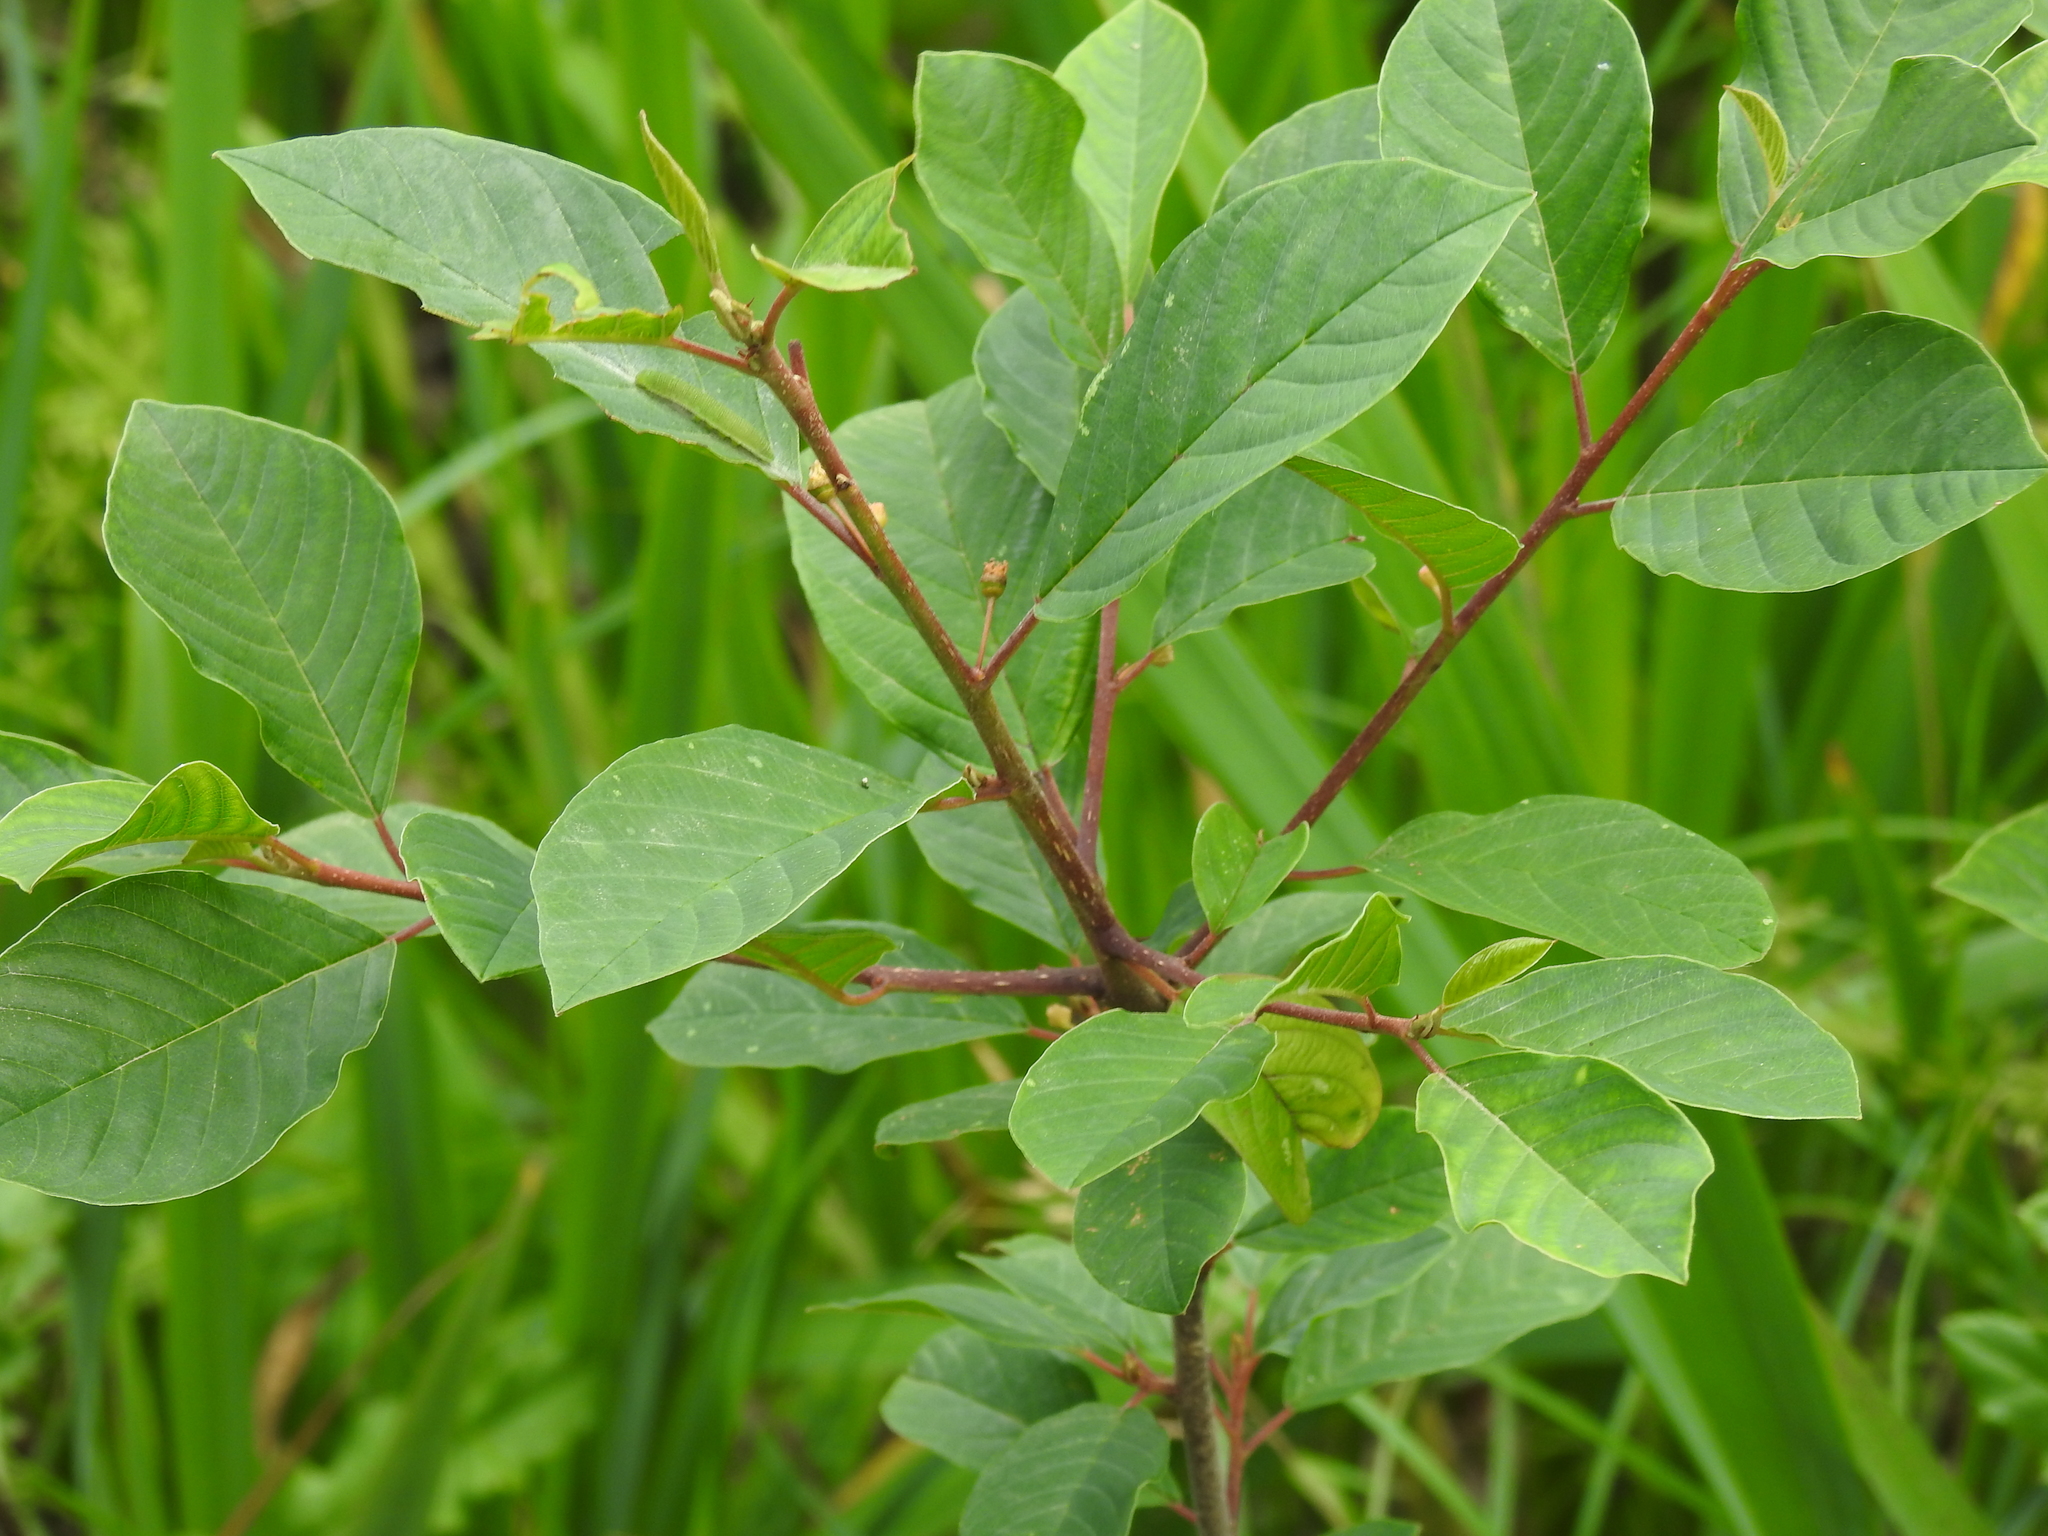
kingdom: Plantae
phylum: Tracheophyta
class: Magnoliopsida
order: Rosales
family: Rhamnaceae
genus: Frangula
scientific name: Frangula alnus
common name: Alder buckthorn
